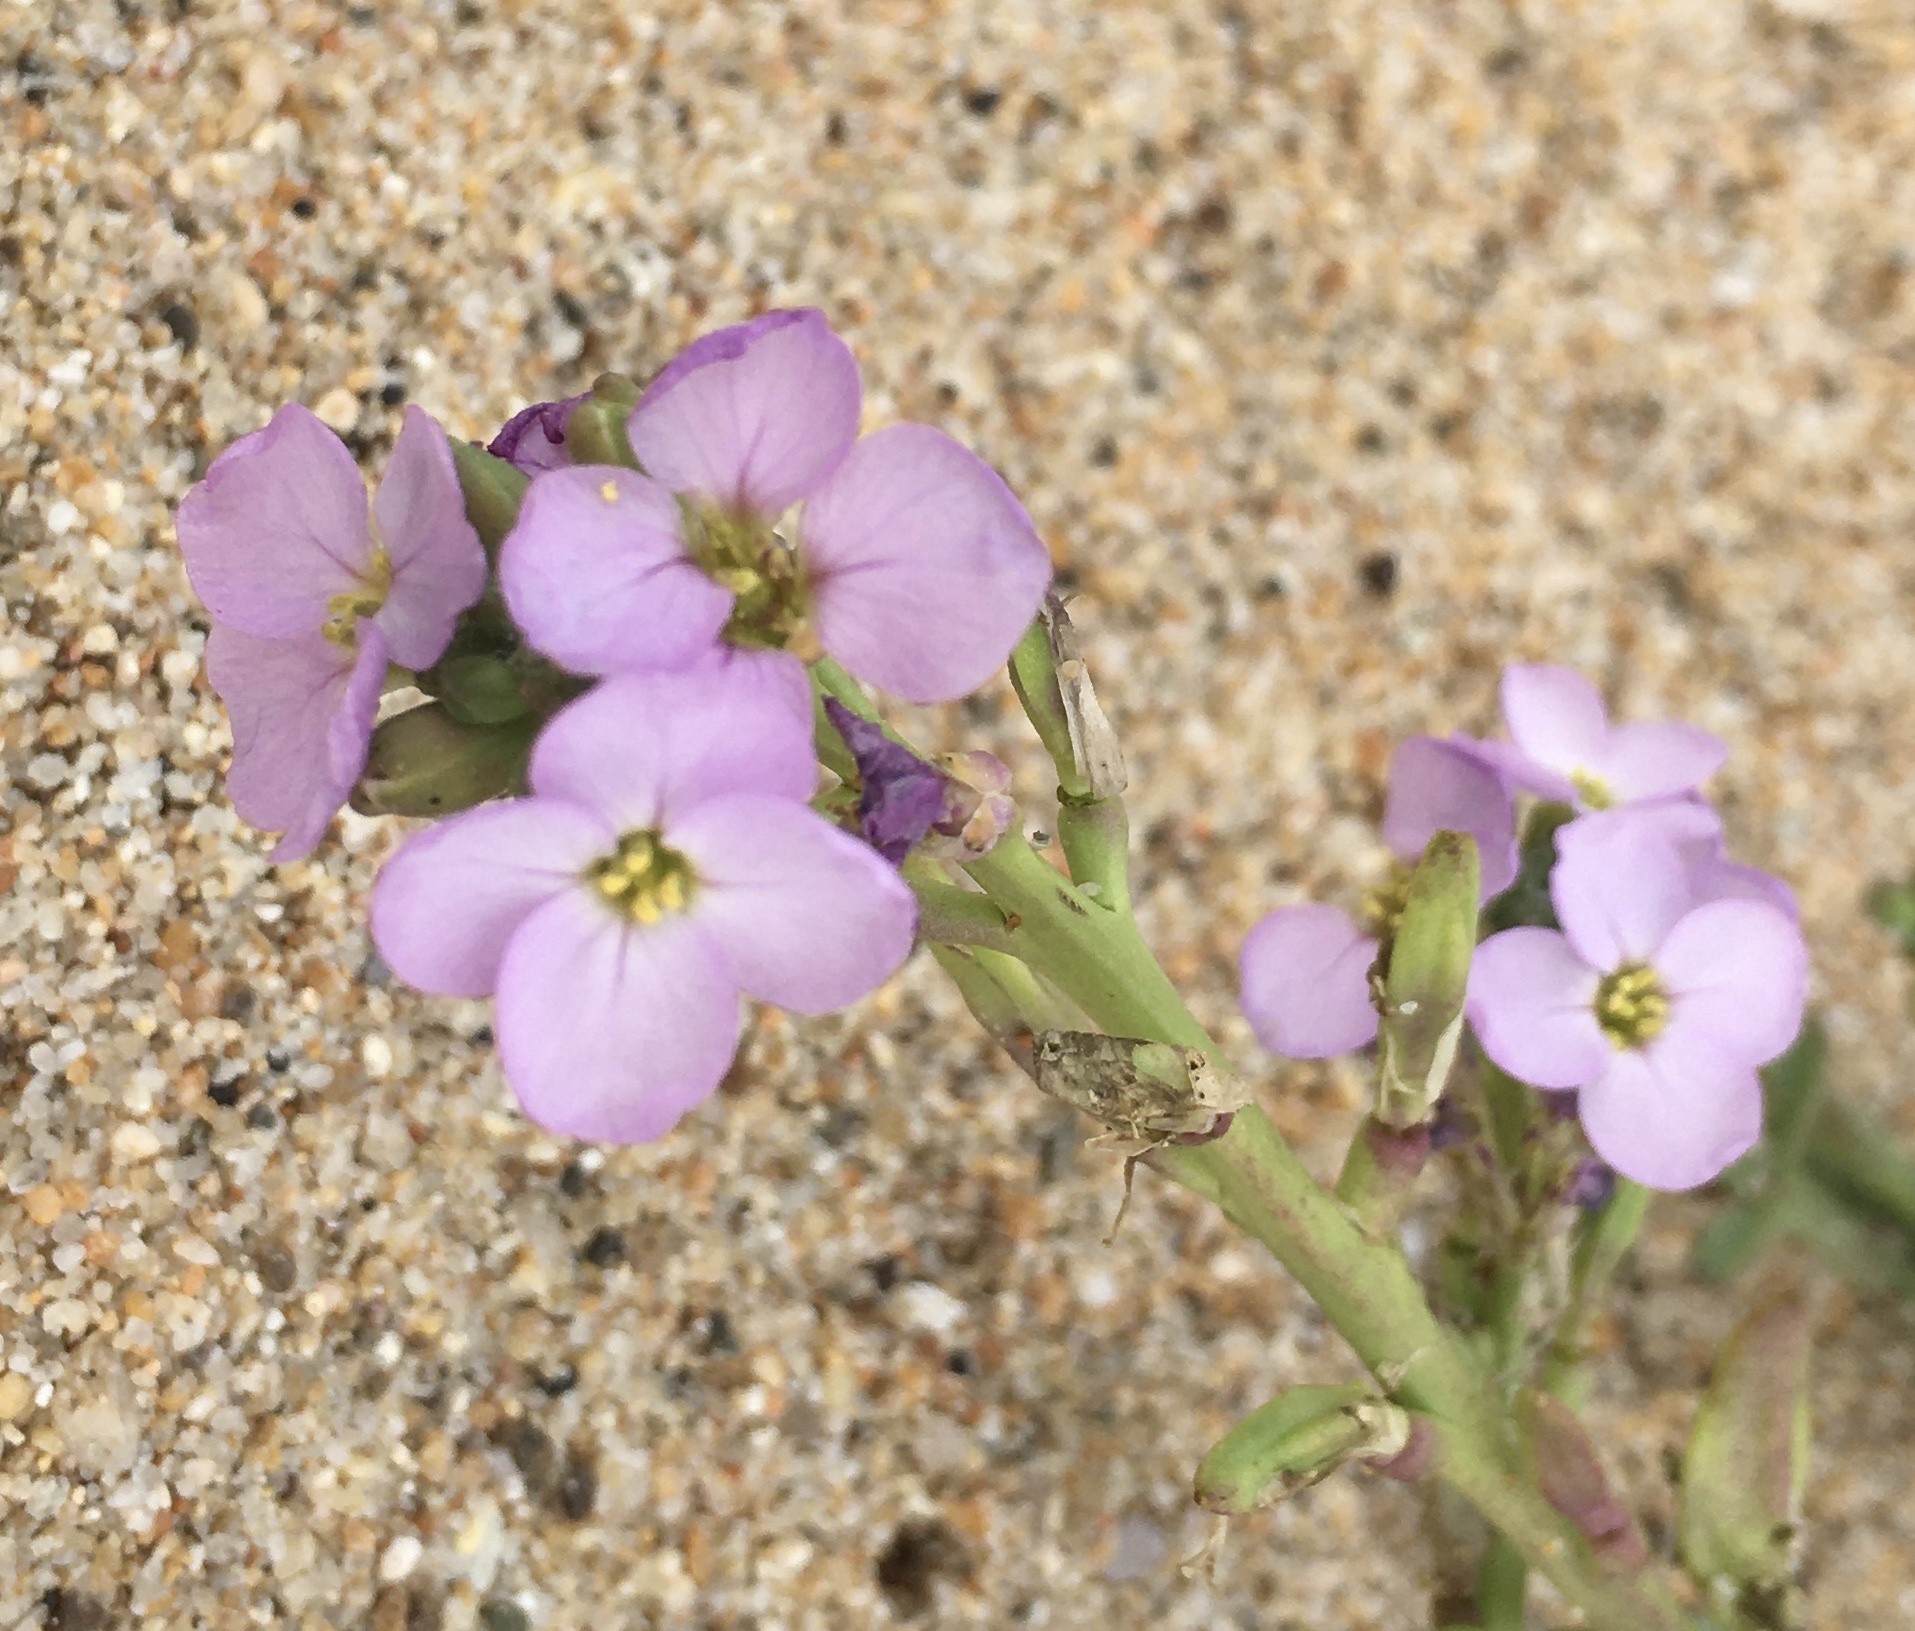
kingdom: Plantae
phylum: Tracheophyta
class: Magnoliopsida
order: Brassicales
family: Brassicaceae
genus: Cakile
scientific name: Cakile maritima
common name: Sea rocket
